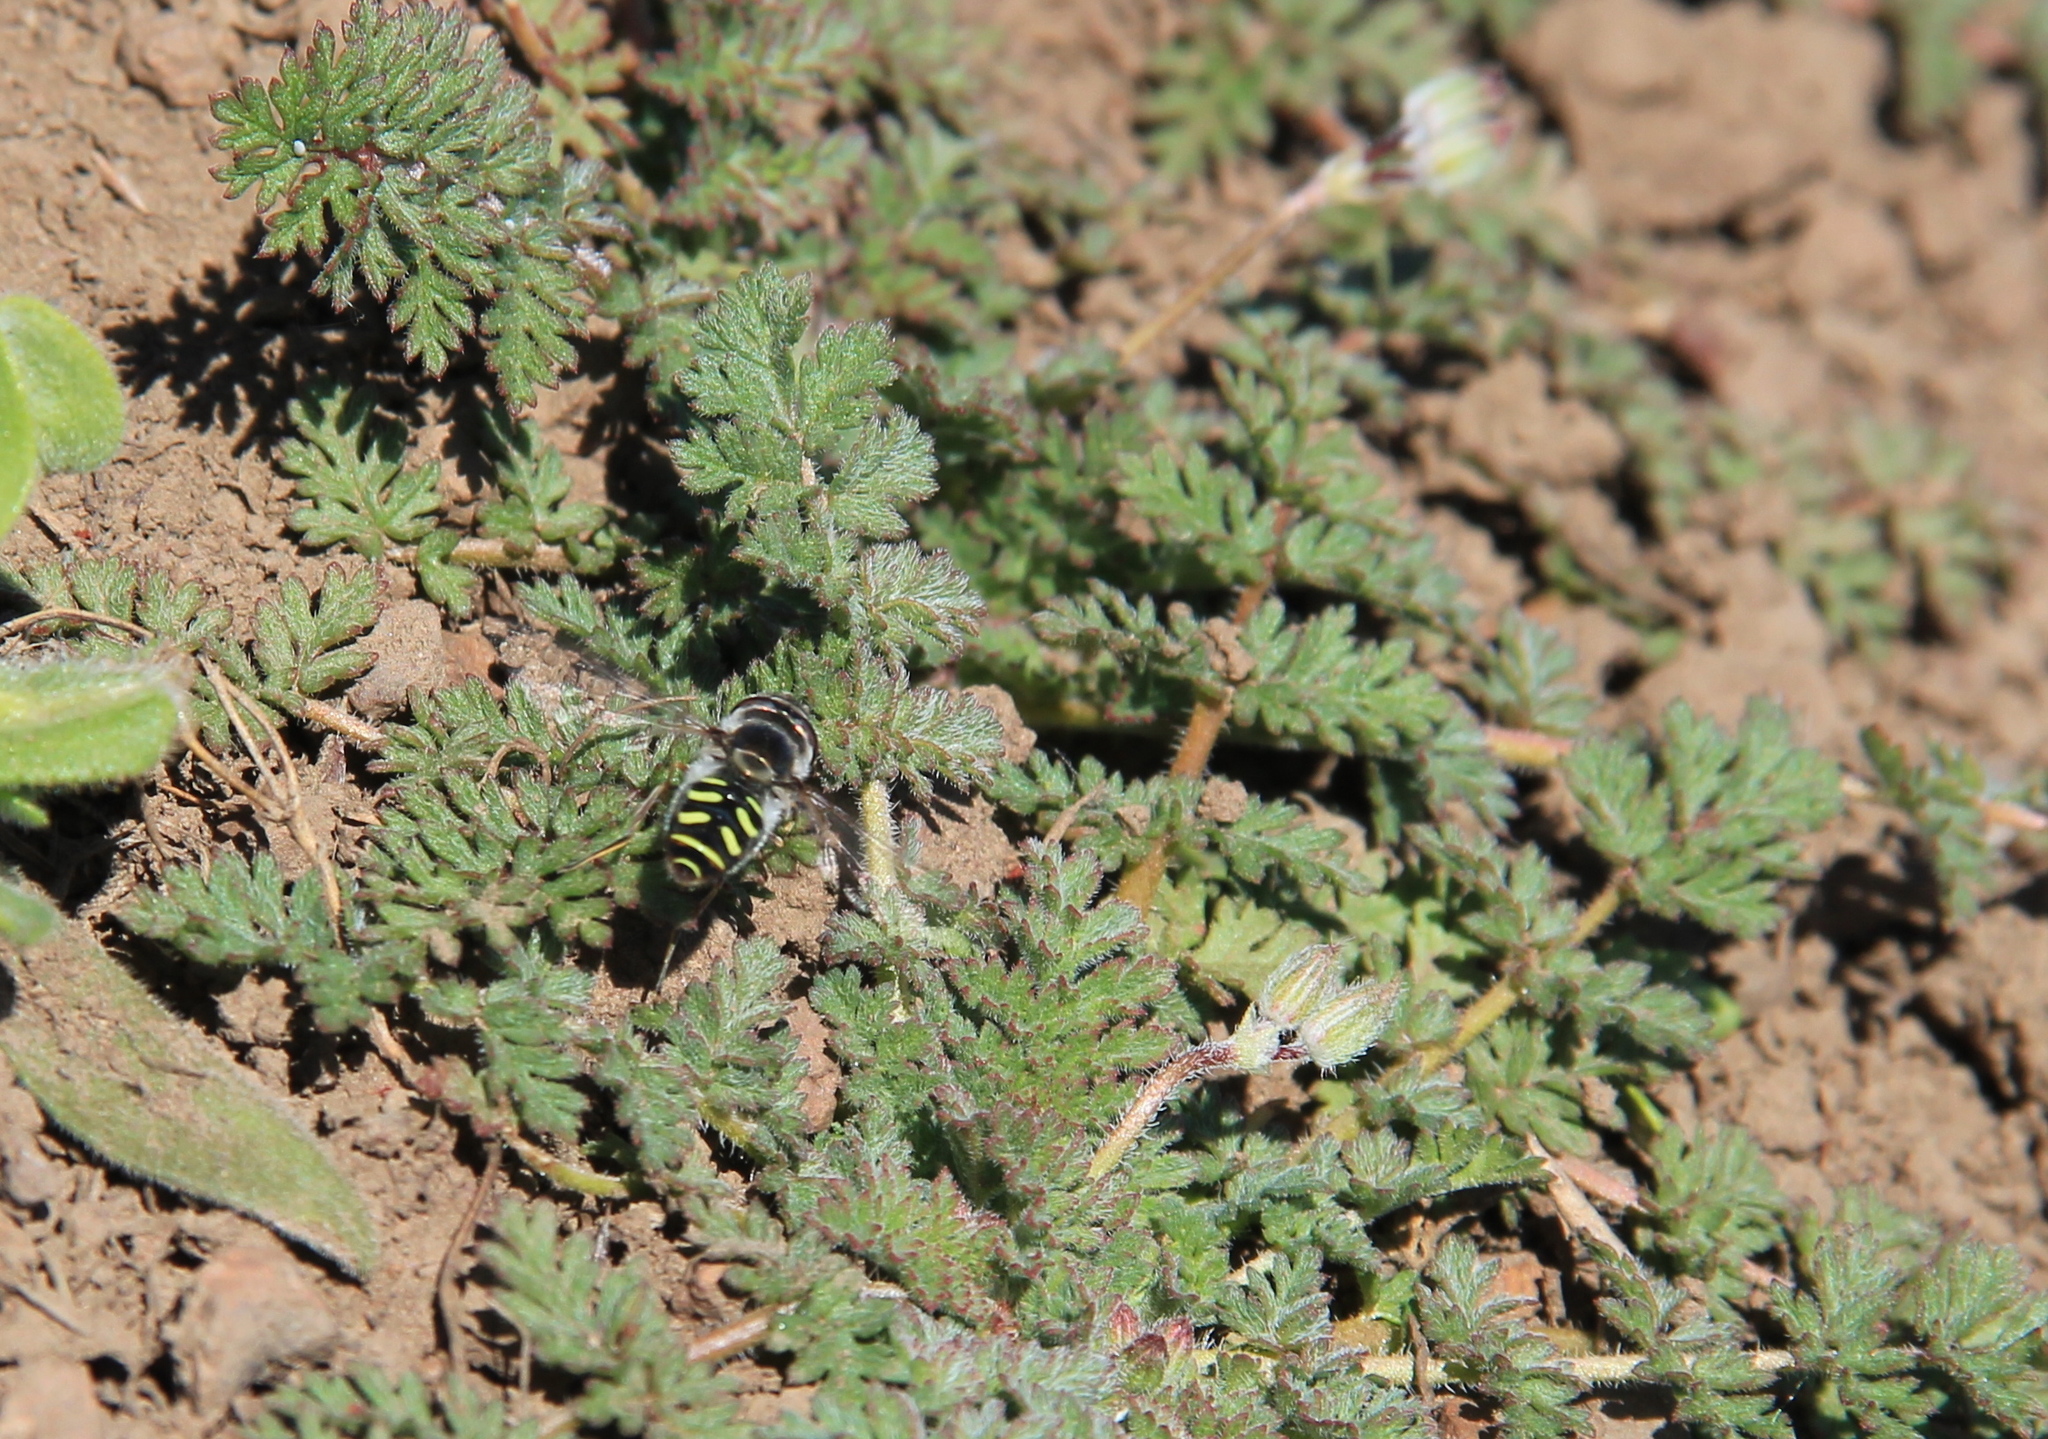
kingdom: Animalia
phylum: Arthropoda
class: Insecta
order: Diptera
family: Syrphidae
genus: Austroscaeva
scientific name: Austroscaeva melanostoma
